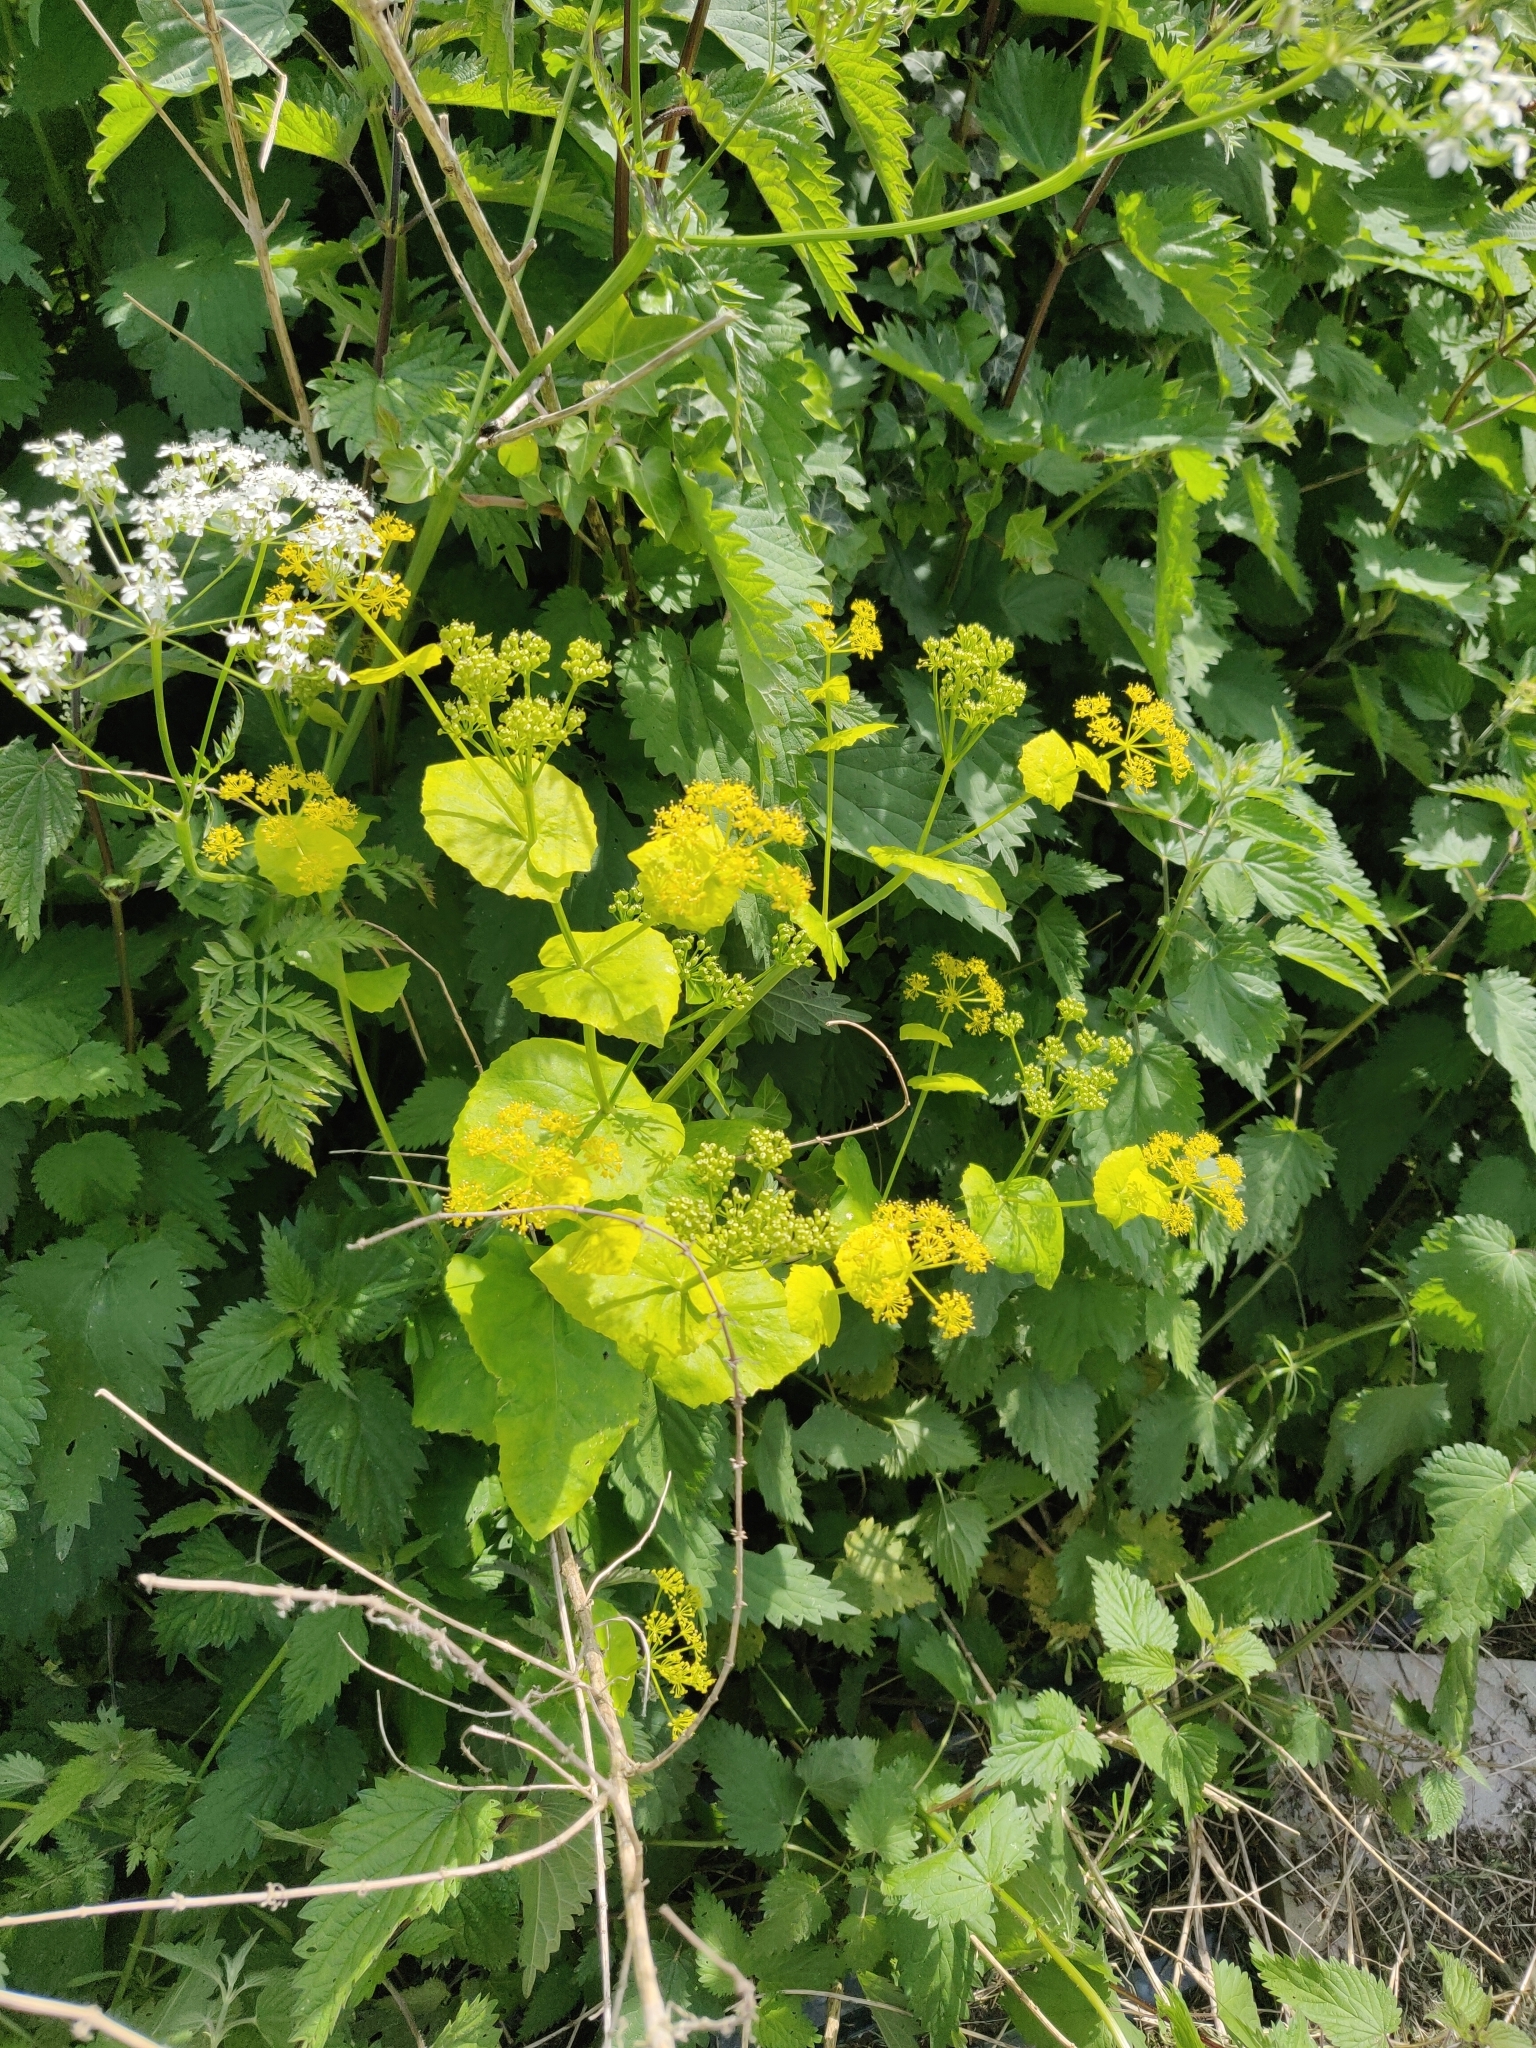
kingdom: Plantae
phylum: Tracheophyta
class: Magnoliopsida
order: Apiales
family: Apiaceae
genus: Smyrnium
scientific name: Smyrnium perfoliatum
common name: Perfoliate alexanders
